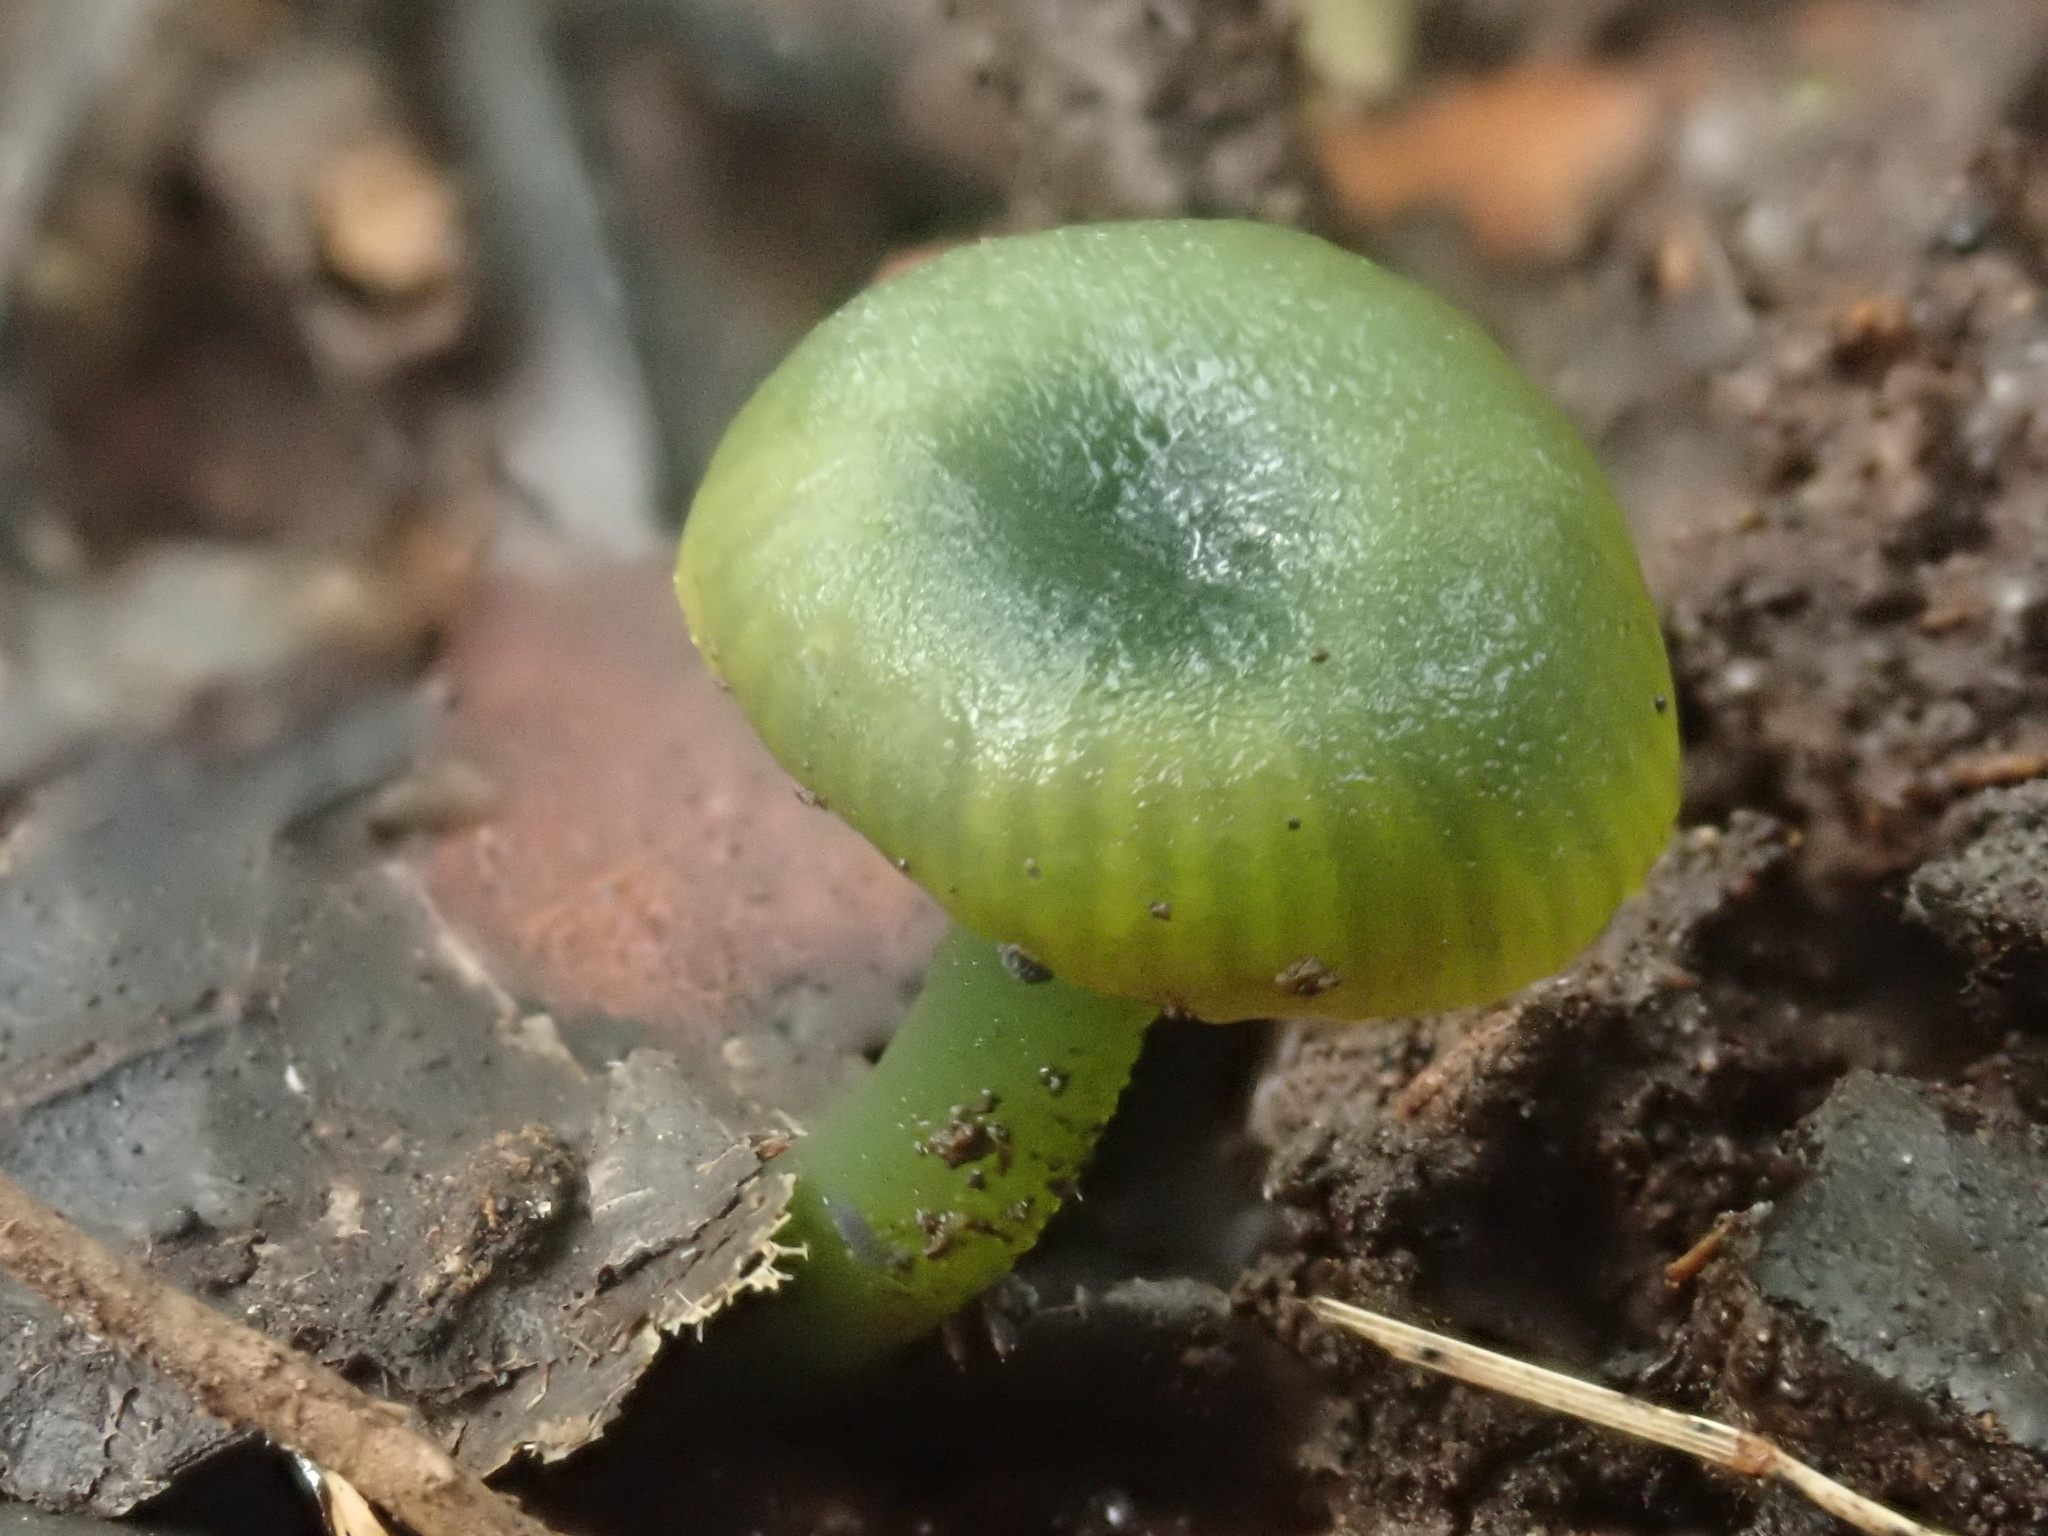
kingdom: Fungi
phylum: Basidiomycota
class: Agaricomycetes
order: Agaricales
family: Hygrophoraceae
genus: Gliophorus
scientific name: Gliophorus graminicolor
